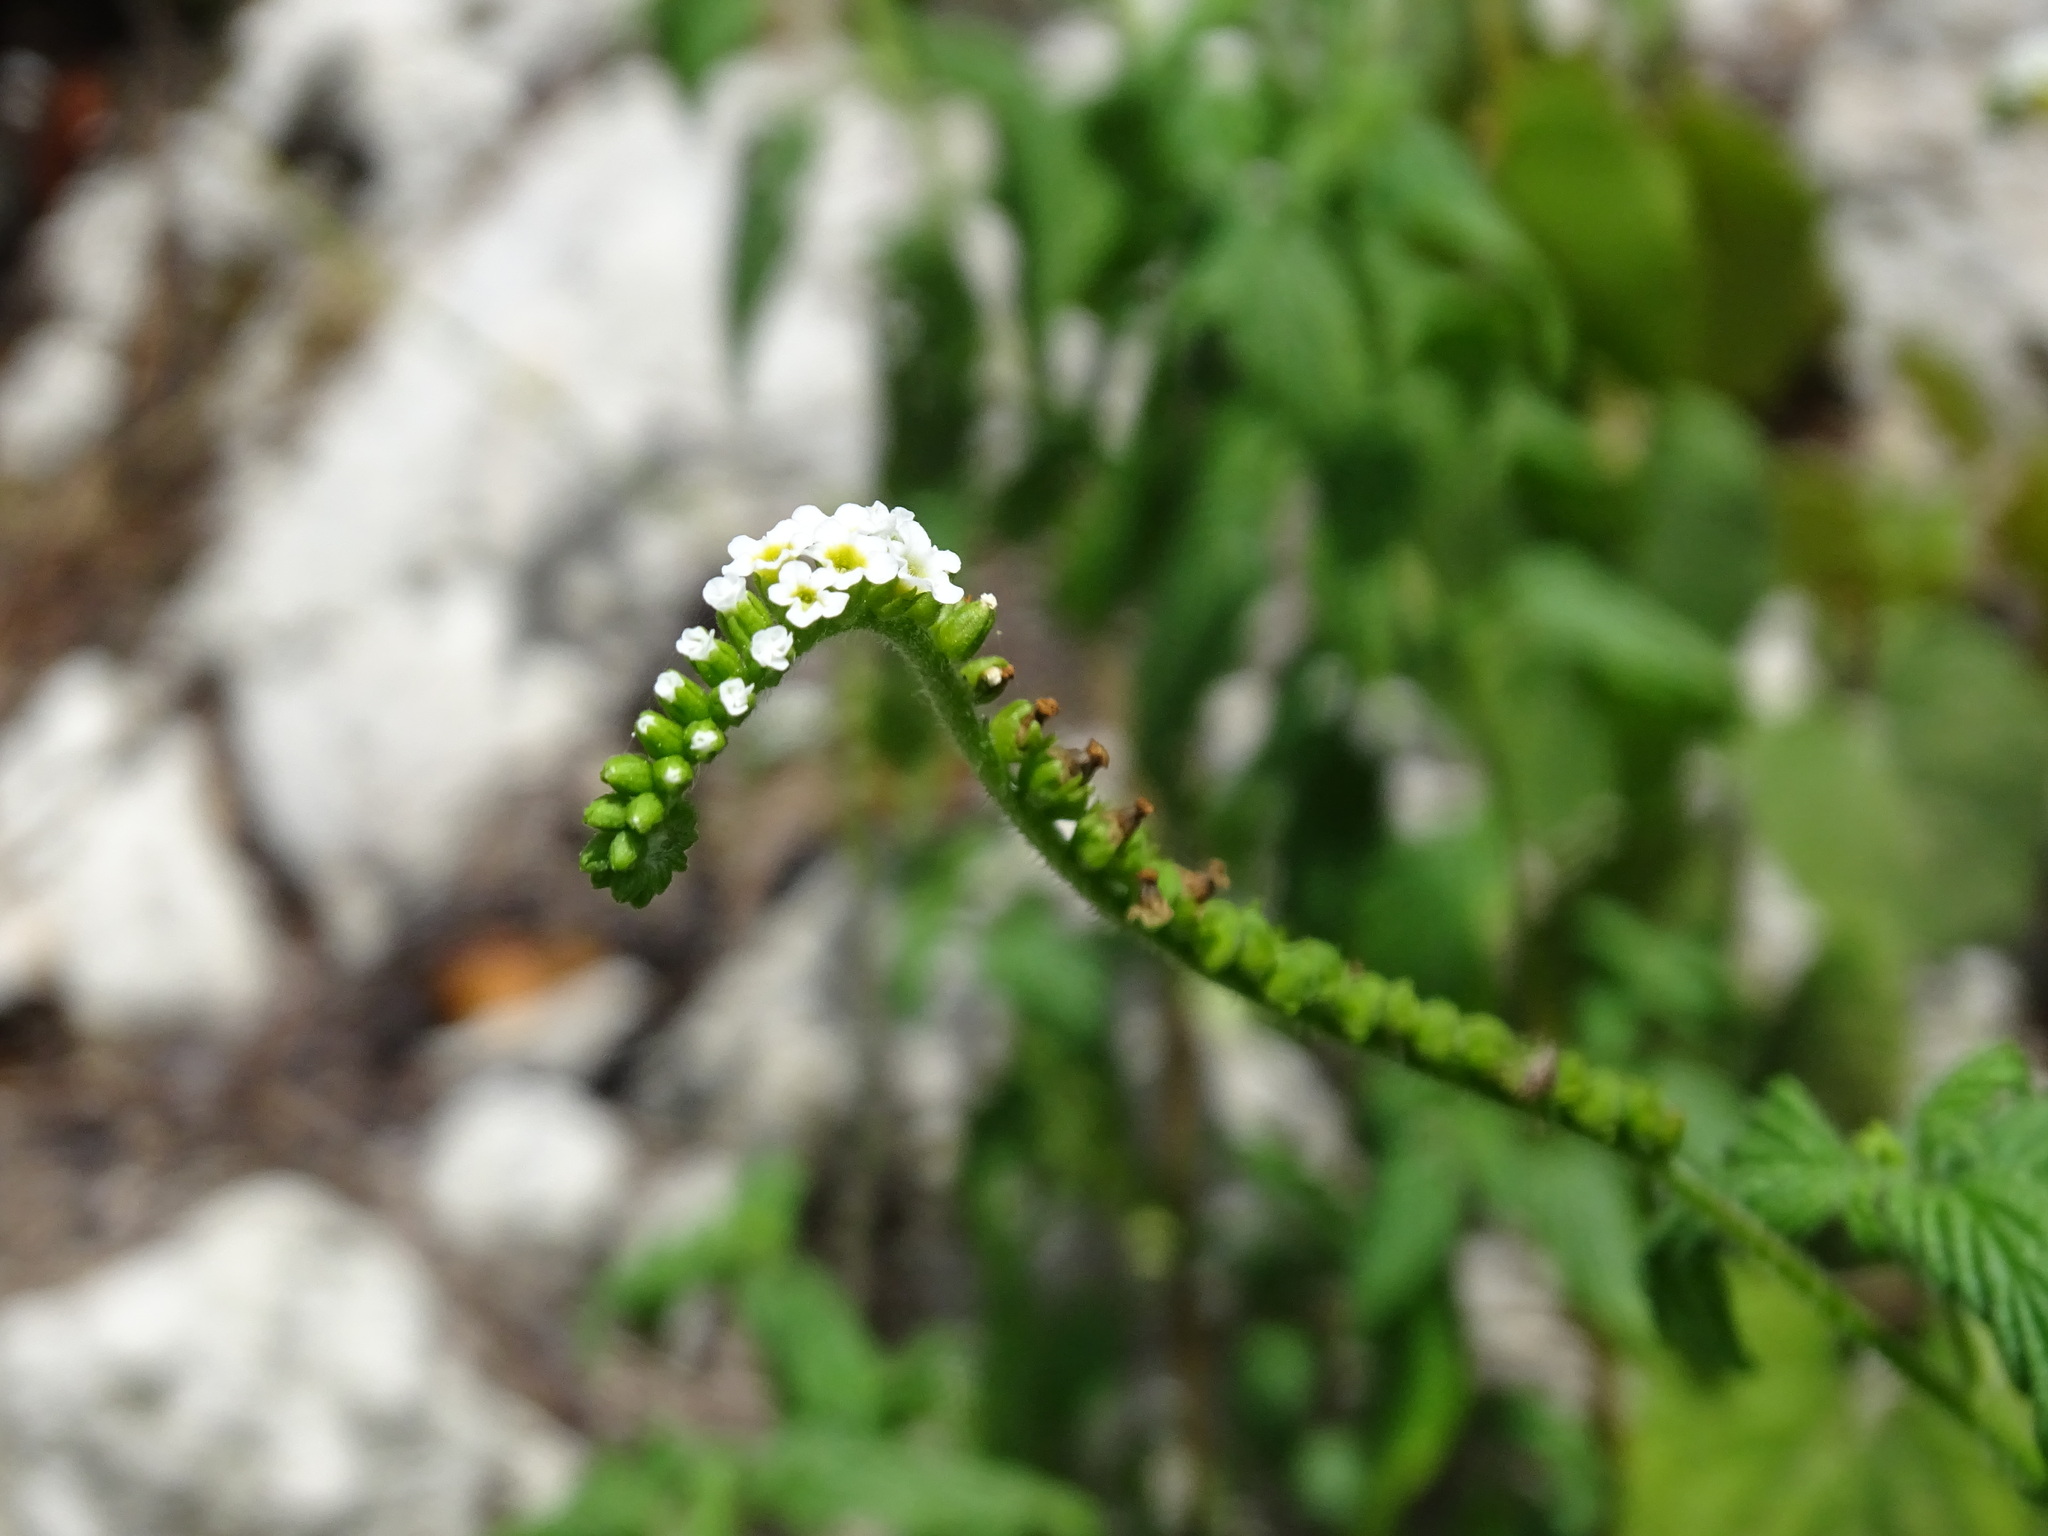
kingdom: Plantae
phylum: Tracheophyta
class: Magnoliopsida
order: Boraginales
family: Heliotropiaceae
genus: Heliotropium
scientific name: Heliotropium angiospermum
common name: Eye bright
